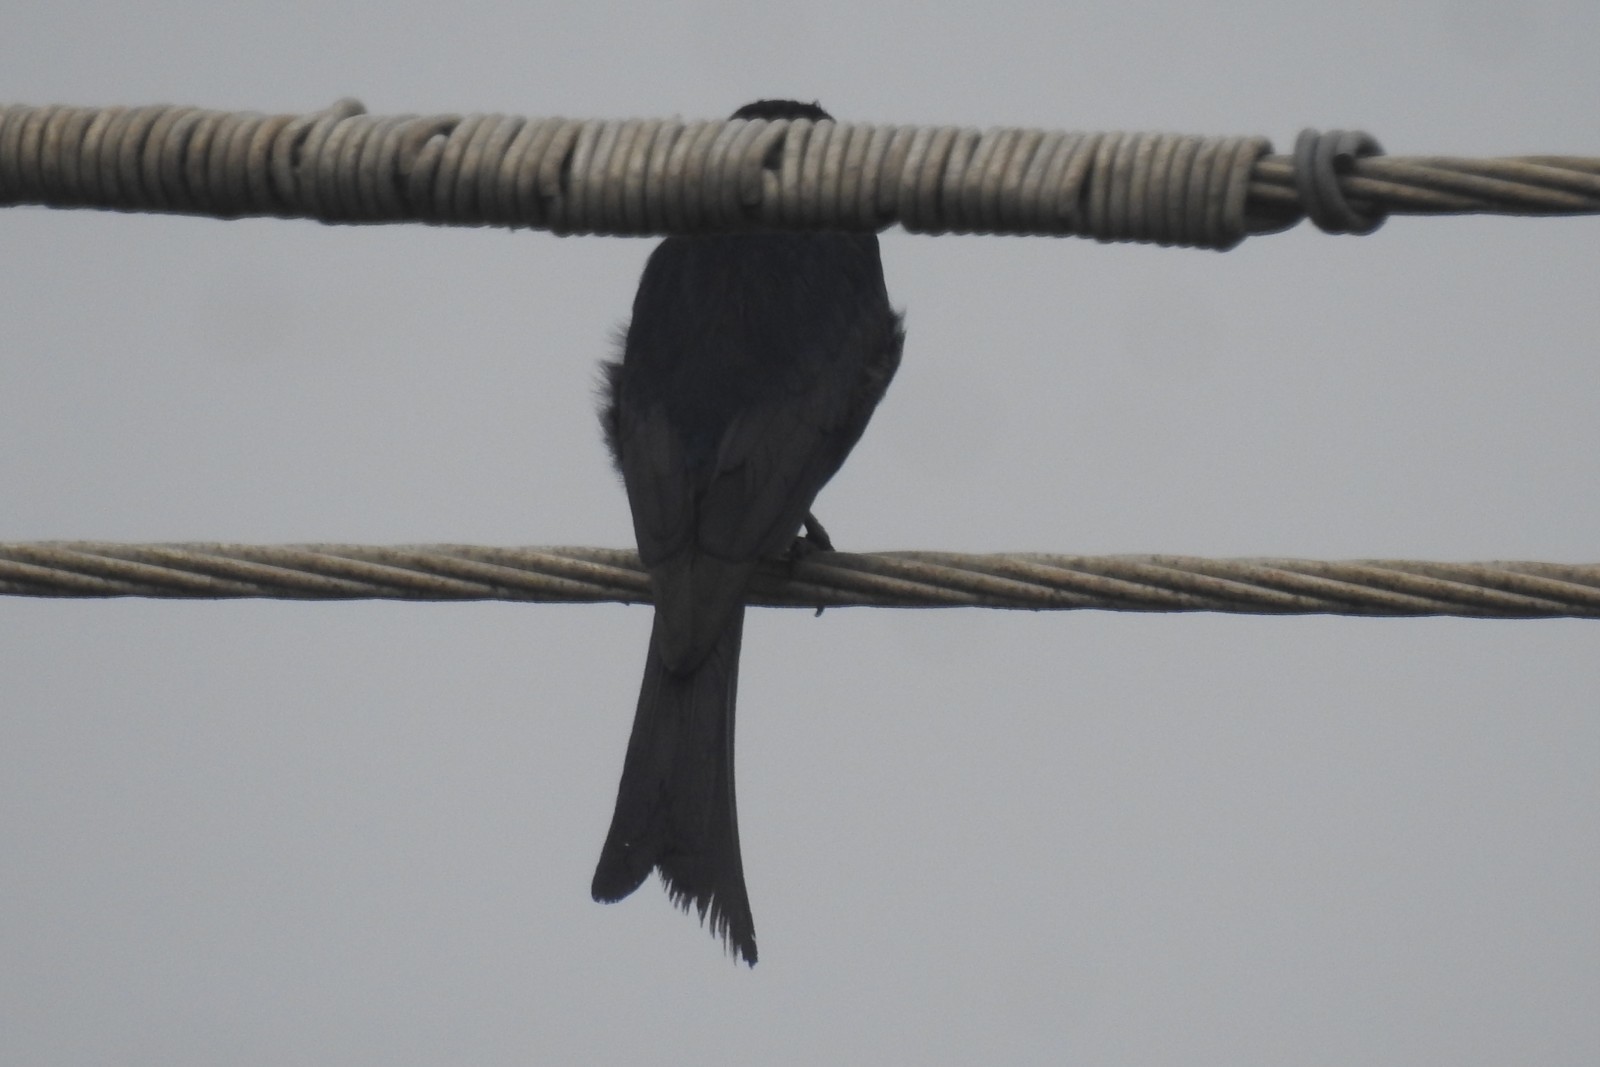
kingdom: Animalia
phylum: Chordata
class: Aves
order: Passeriformes
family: Dicruridae
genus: Dicrurus
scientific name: Dicrurus macrocercus
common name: Black drongo
